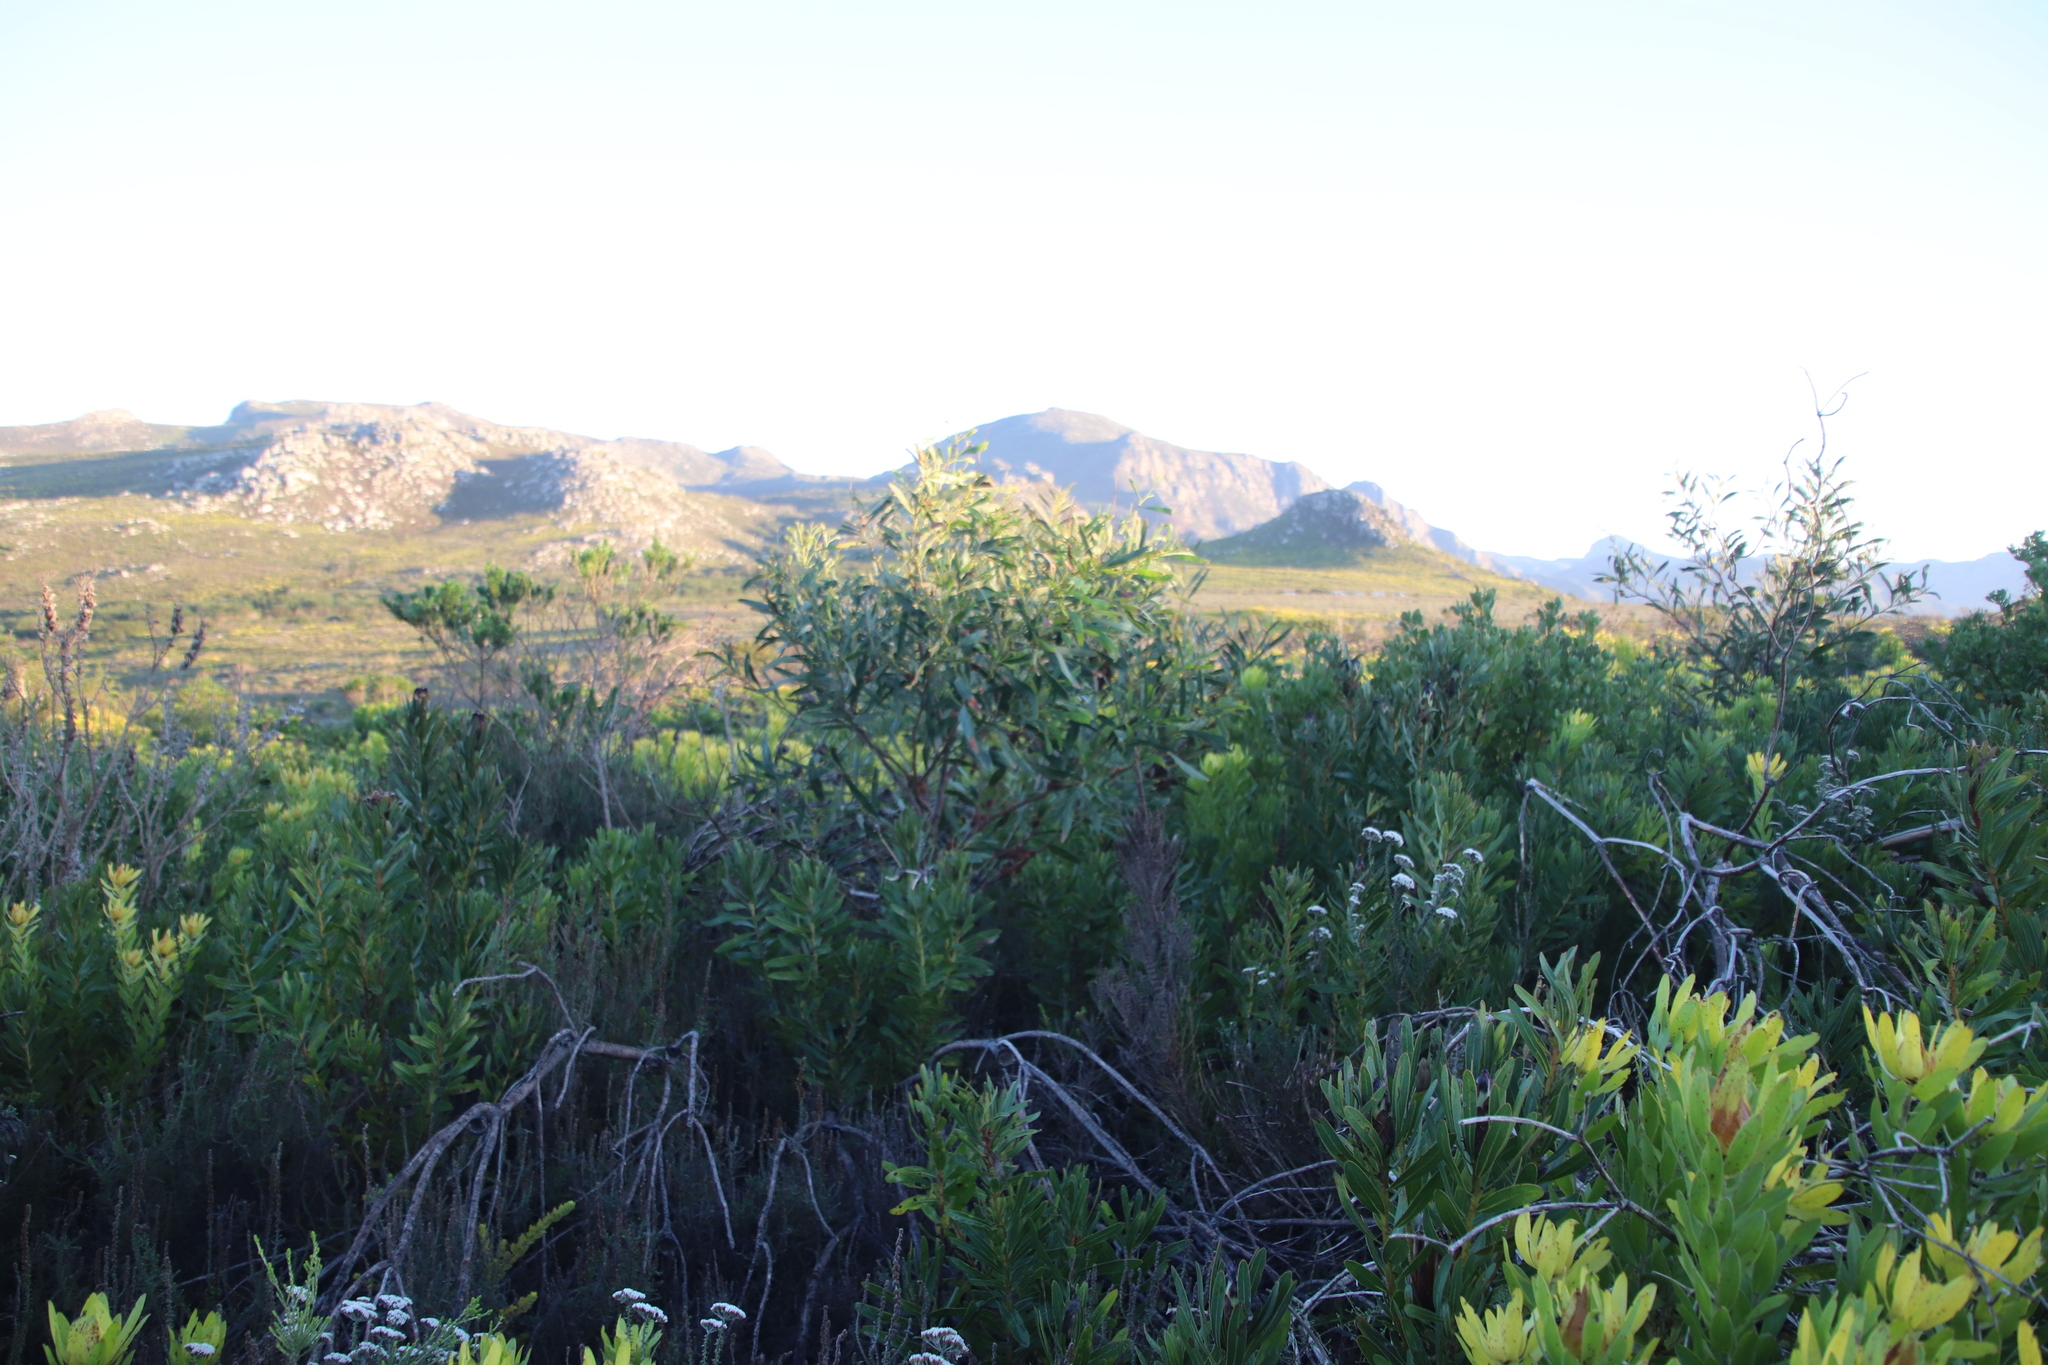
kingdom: Plantae
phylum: Tracheophyta
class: Magnoliopsida
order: Proteales
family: Proteaceae
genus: Protea
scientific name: Protea lepidocarpodendron
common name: Black-bearded protea
